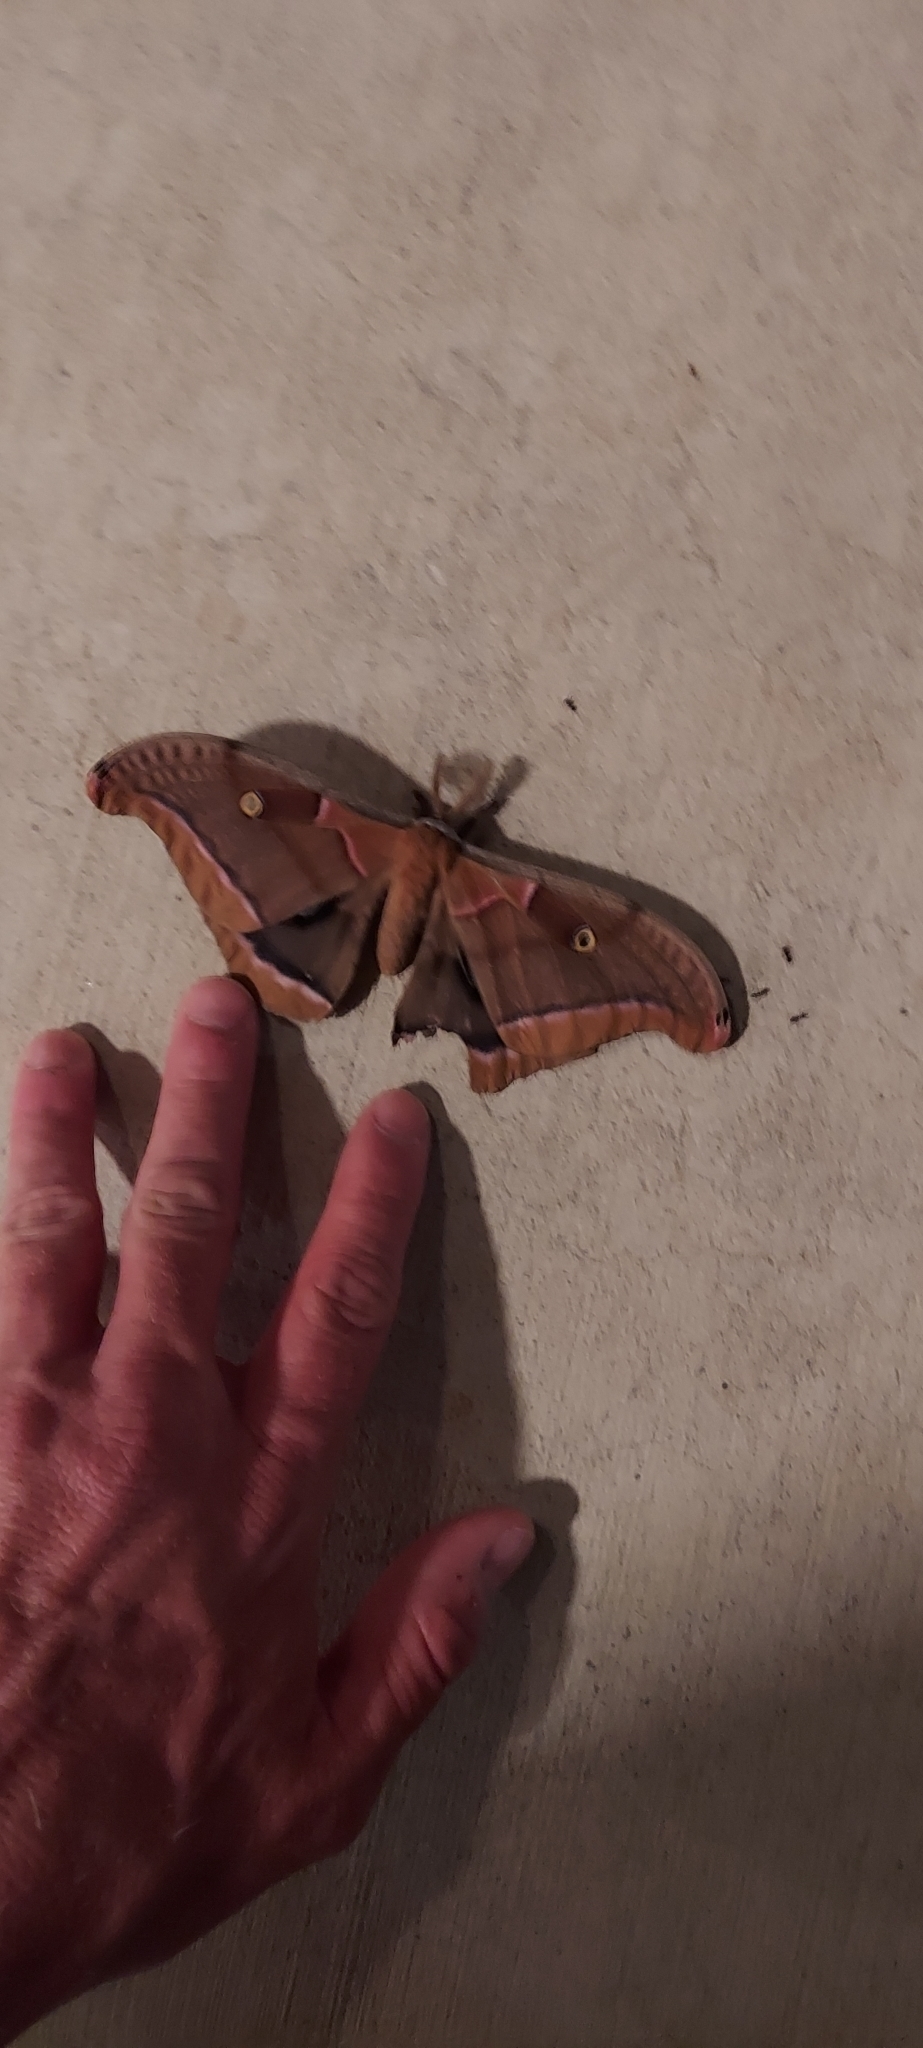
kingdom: Animalia
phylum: Arthropoda
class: Insecta
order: Lepidoptera
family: Saturniidae
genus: Antheraea
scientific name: Antheraea polyphemus
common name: Polyphemus moth
